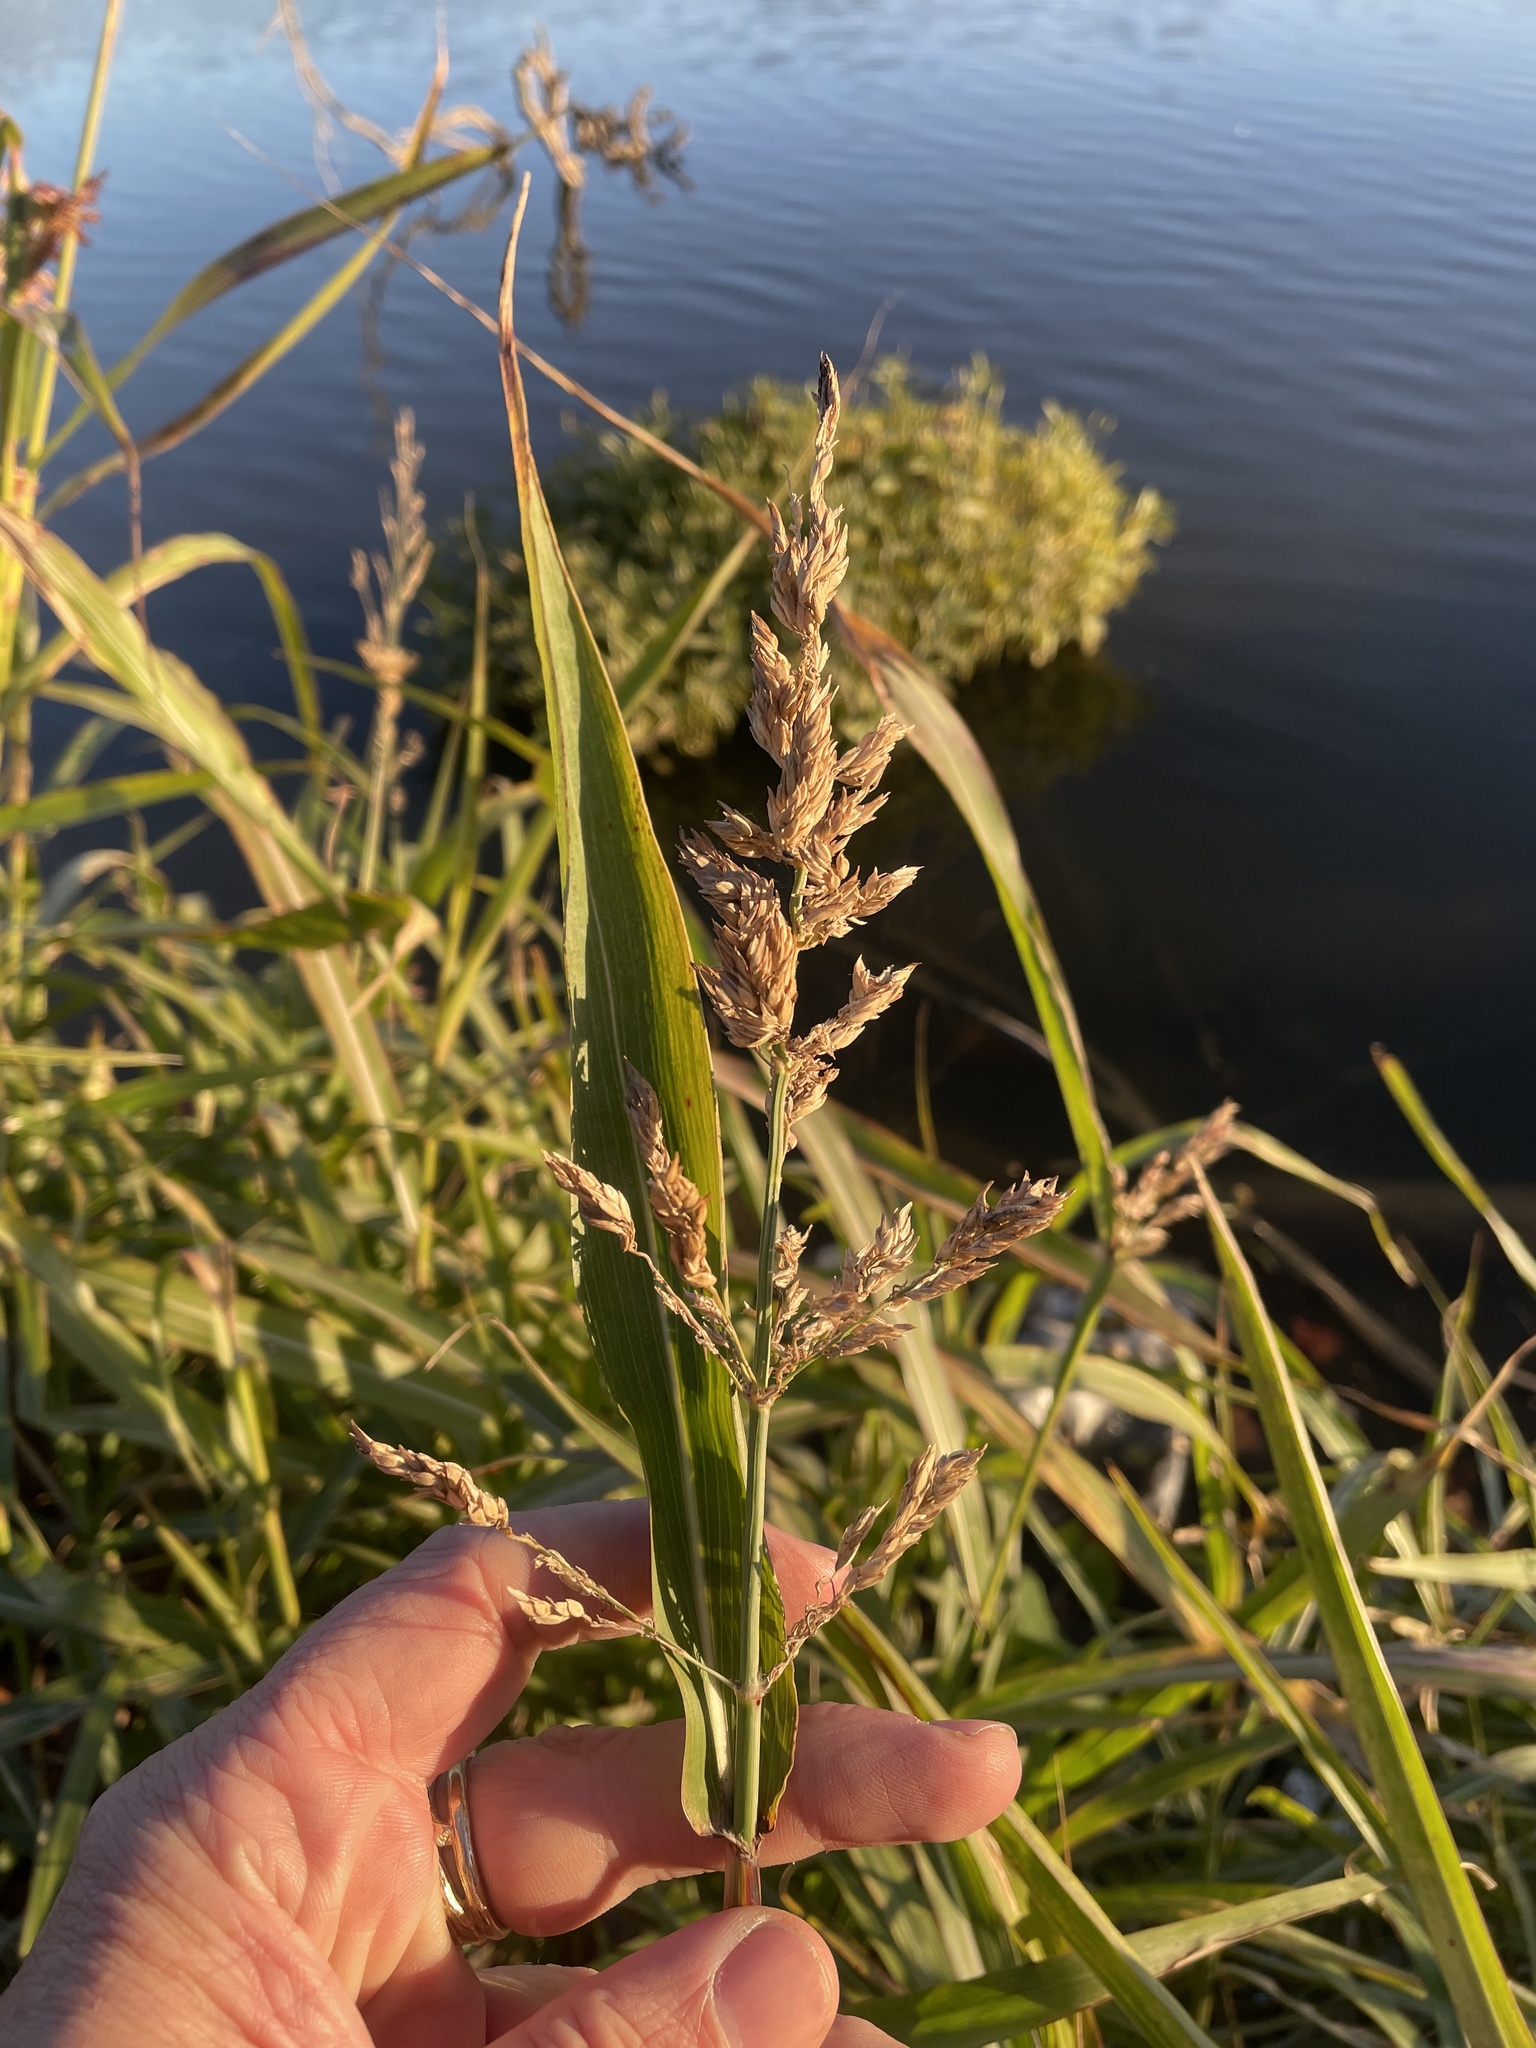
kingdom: Plantae
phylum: Tracheophyta
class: Liliopsida
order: Poales
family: Poaceae
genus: Sorghum
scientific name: Sorghum halepense
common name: Johnson-grass
